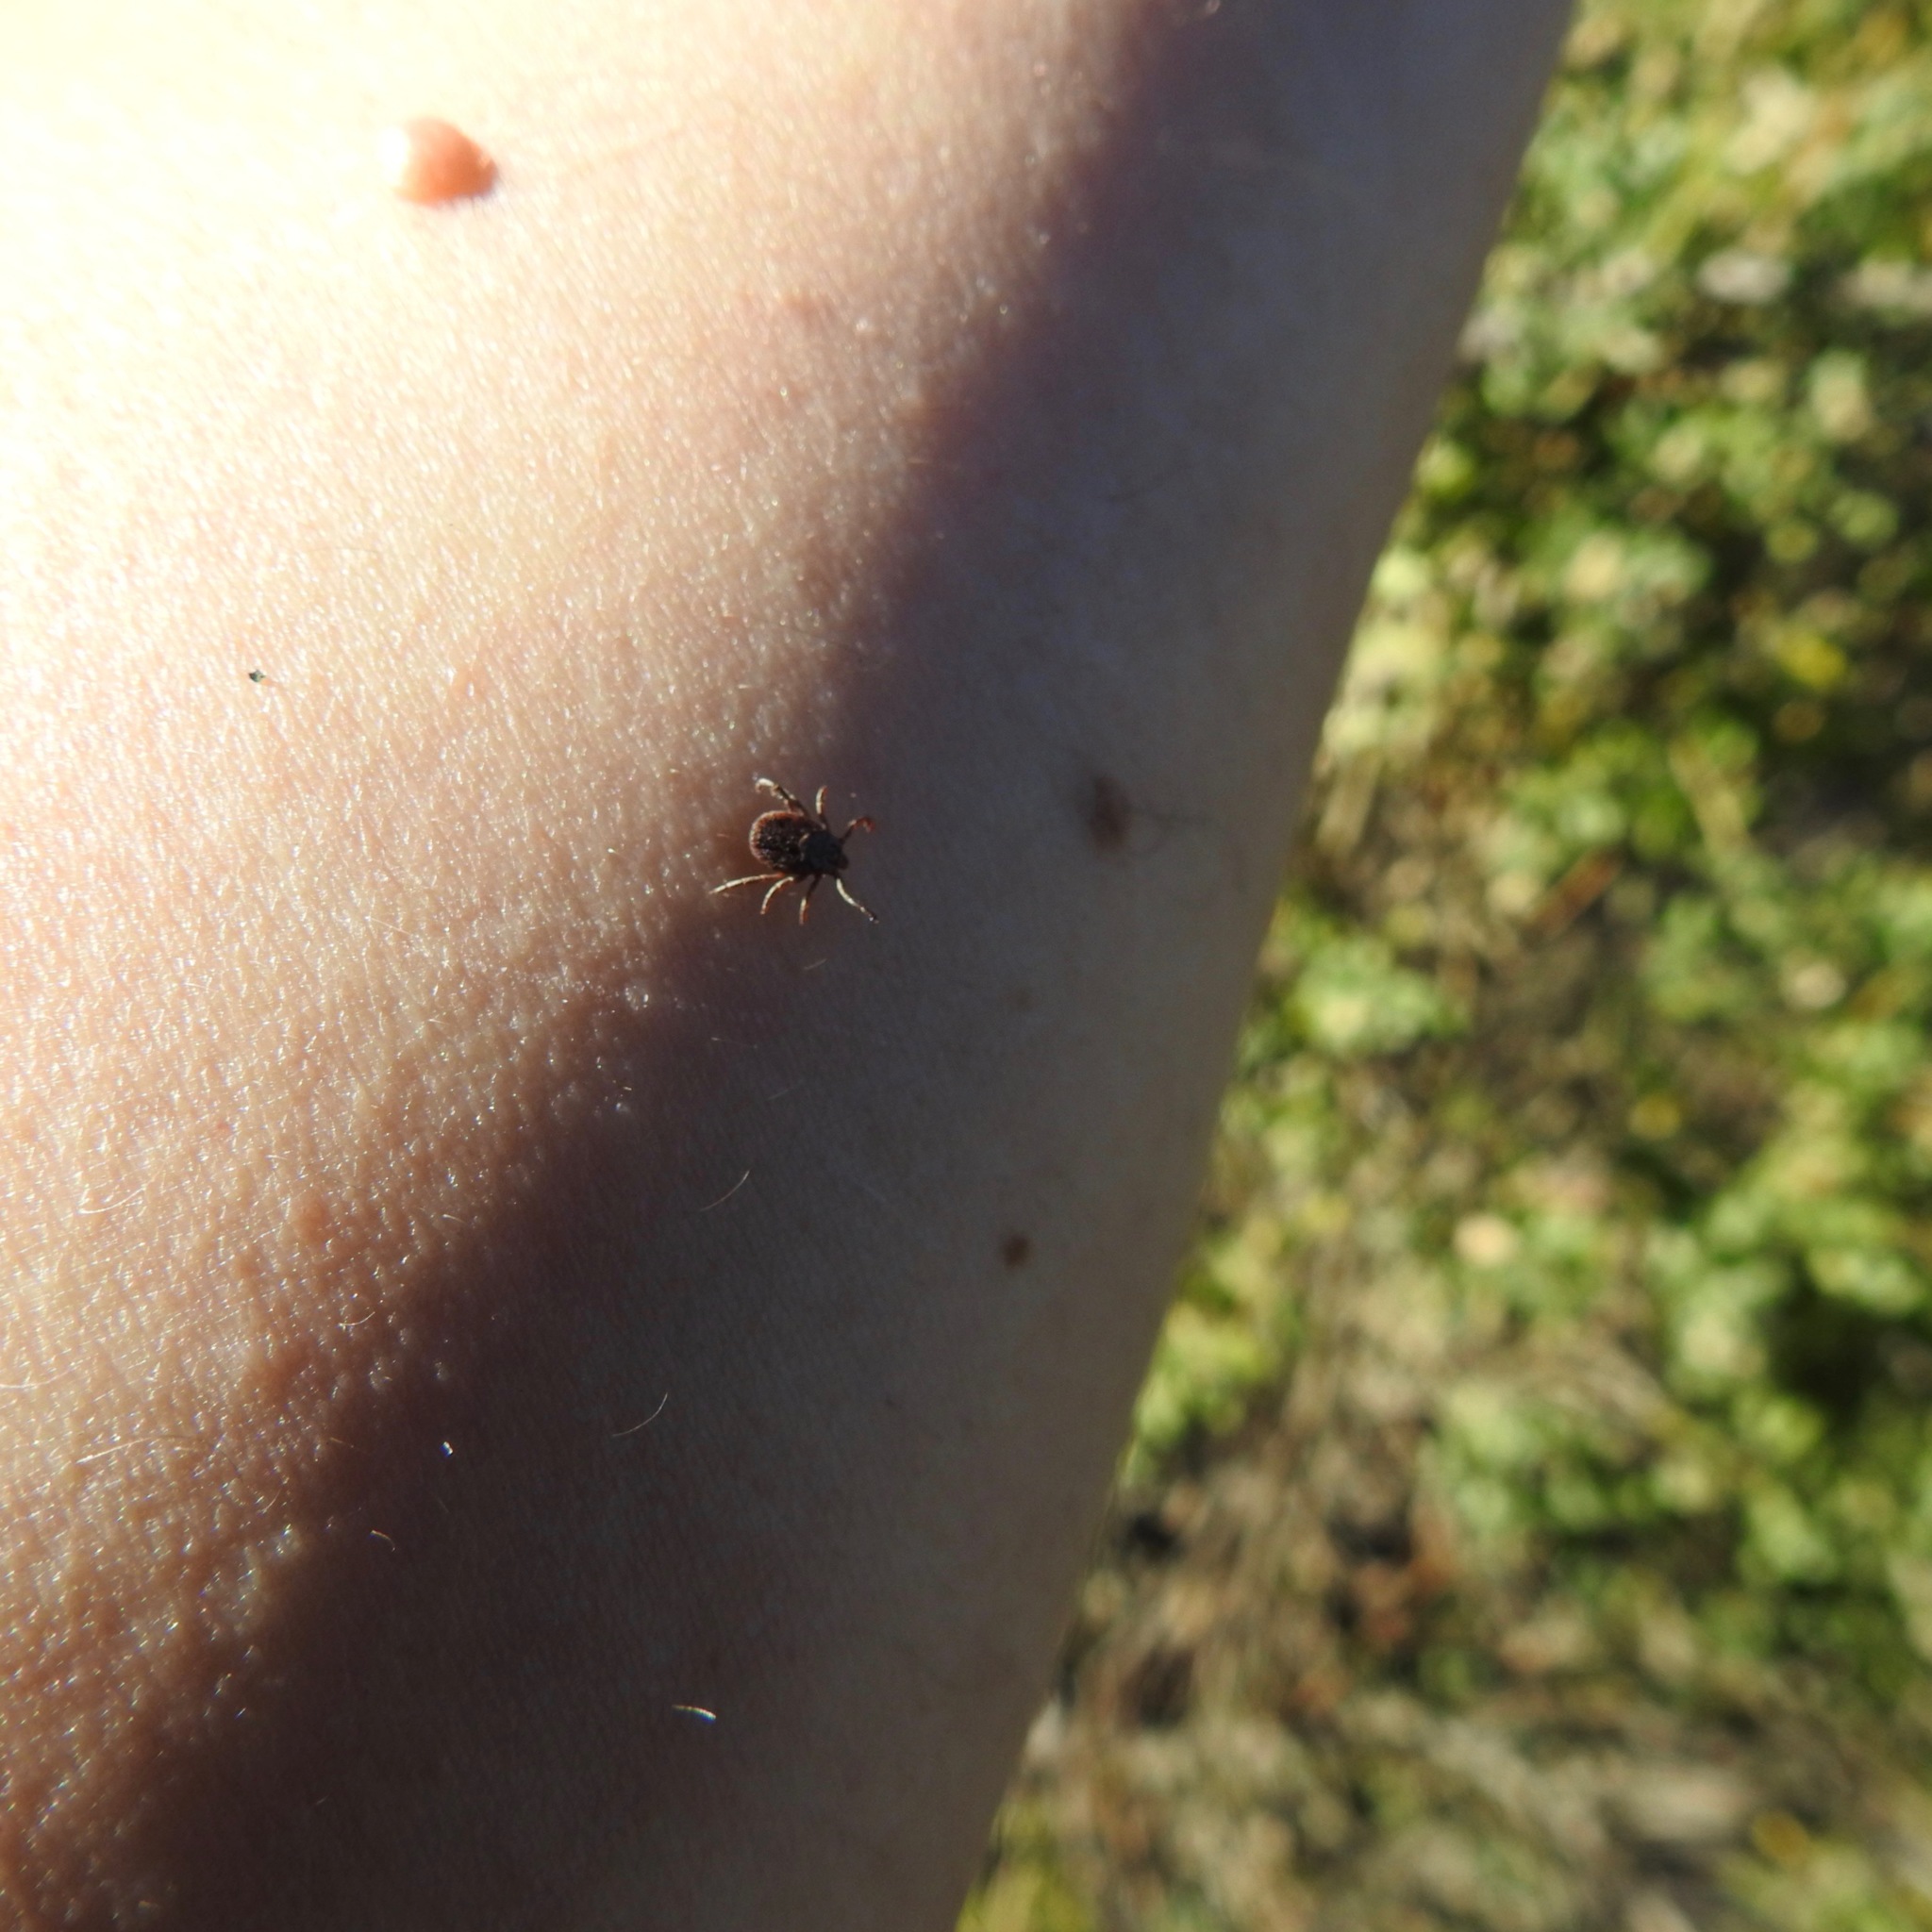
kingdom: Animalia
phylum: Arthropoda
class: Arachnida
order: Ixodida
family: Ixodidae
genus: Dermacentor
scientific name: Dermacentor occidentalis
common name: Net tick
